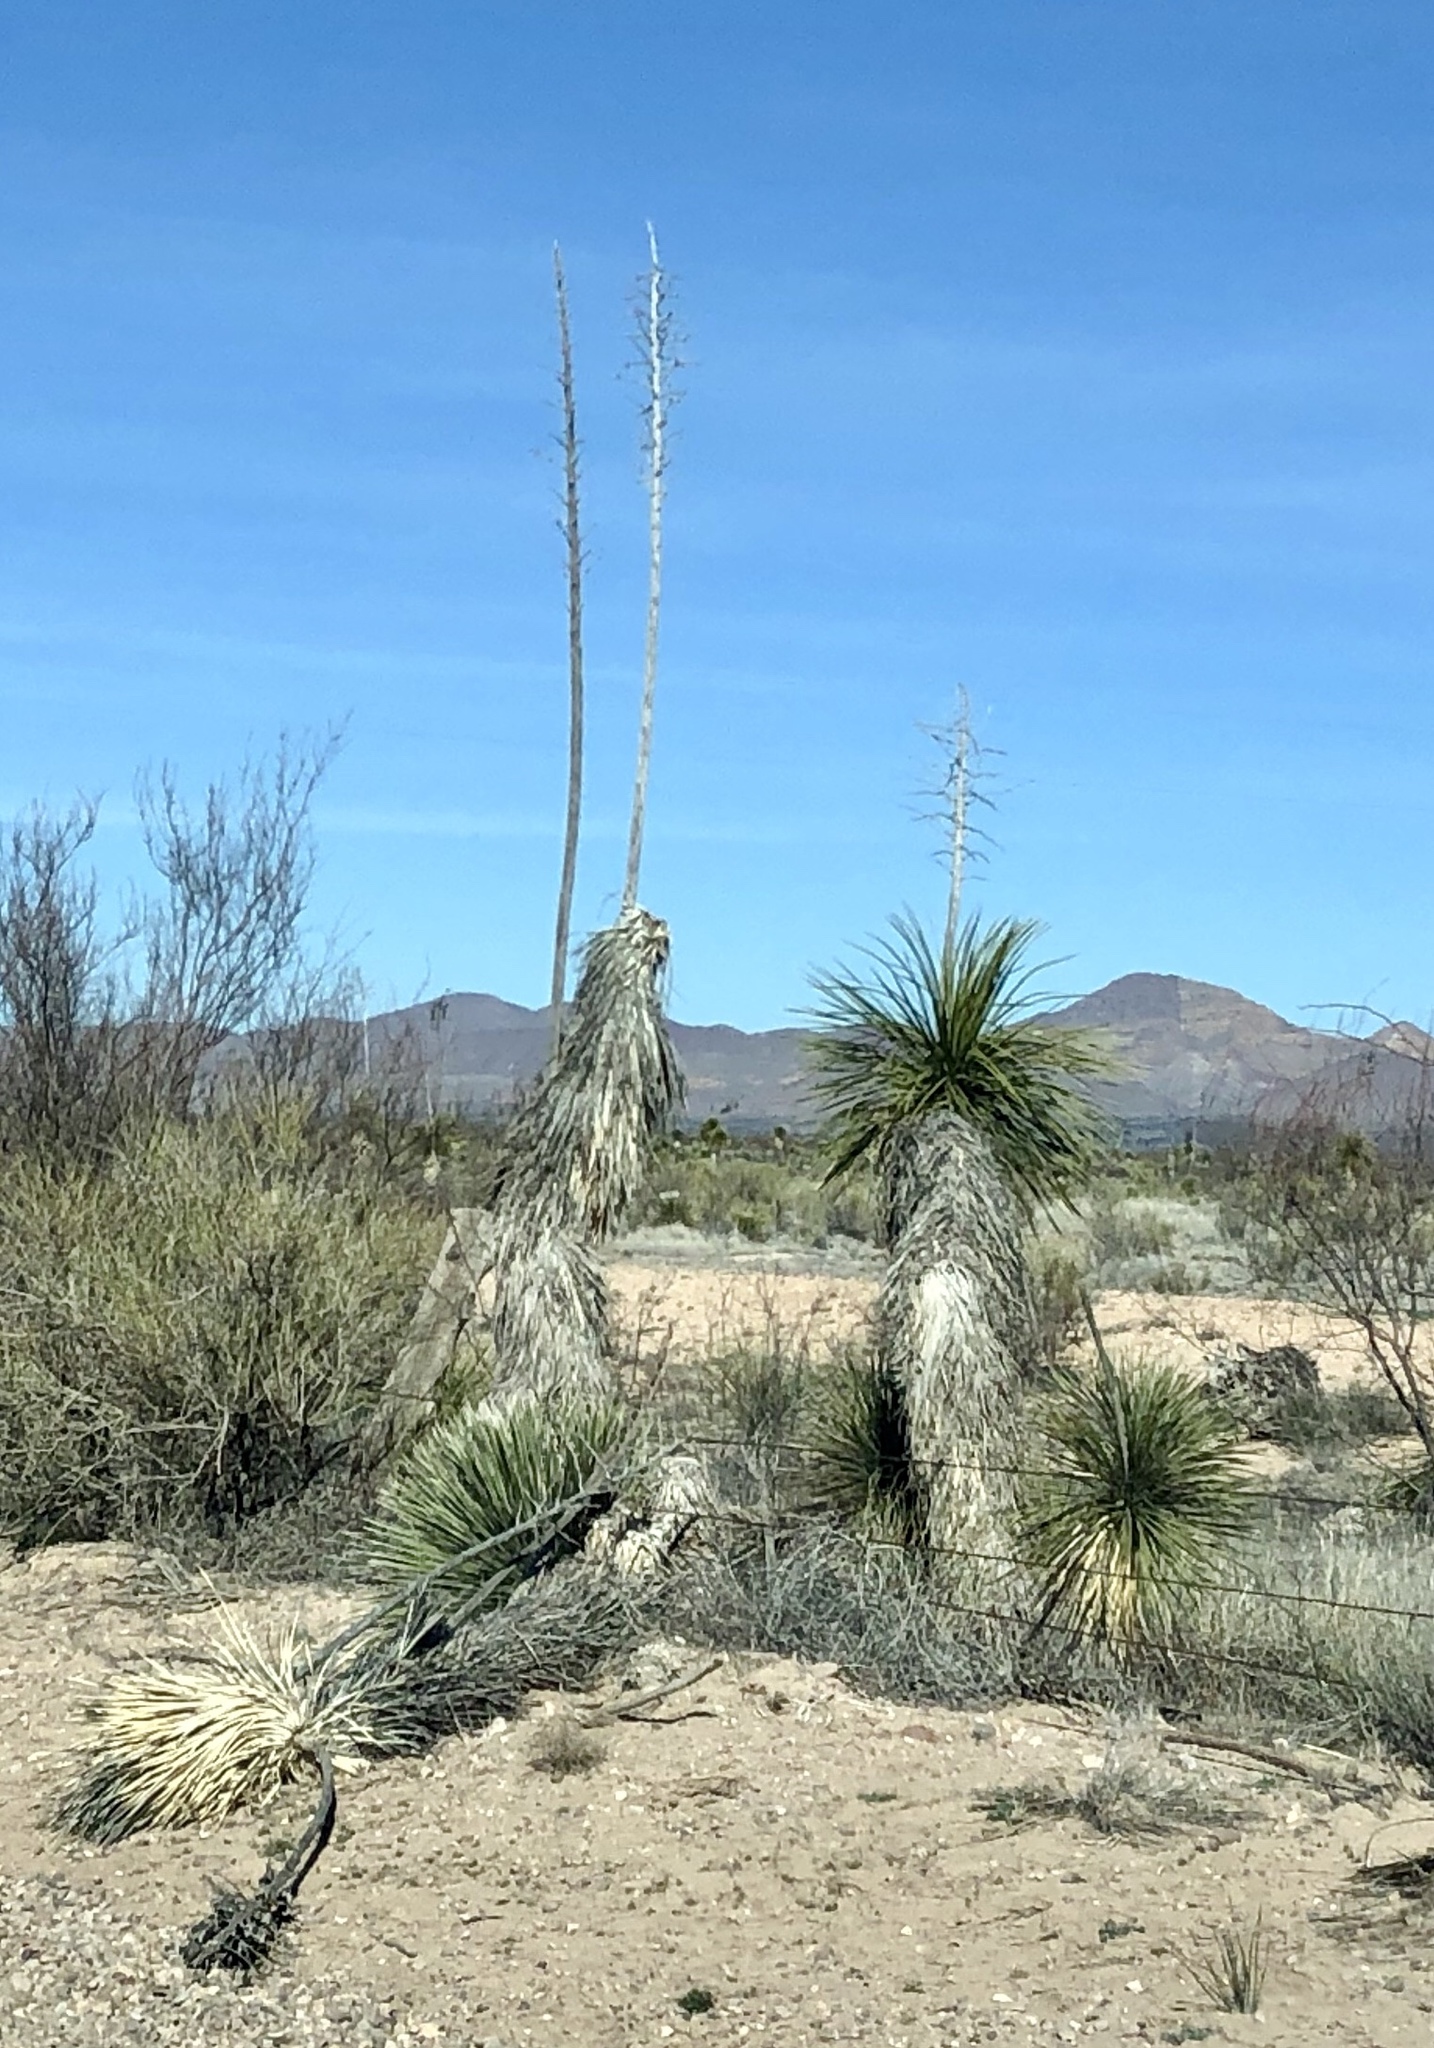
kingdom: Plantae
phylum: Tracheophyta
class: Liliopsida
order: Asparagales
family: Asparagaceae
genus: Yucca
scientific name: Yucca elata
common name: Palmella
